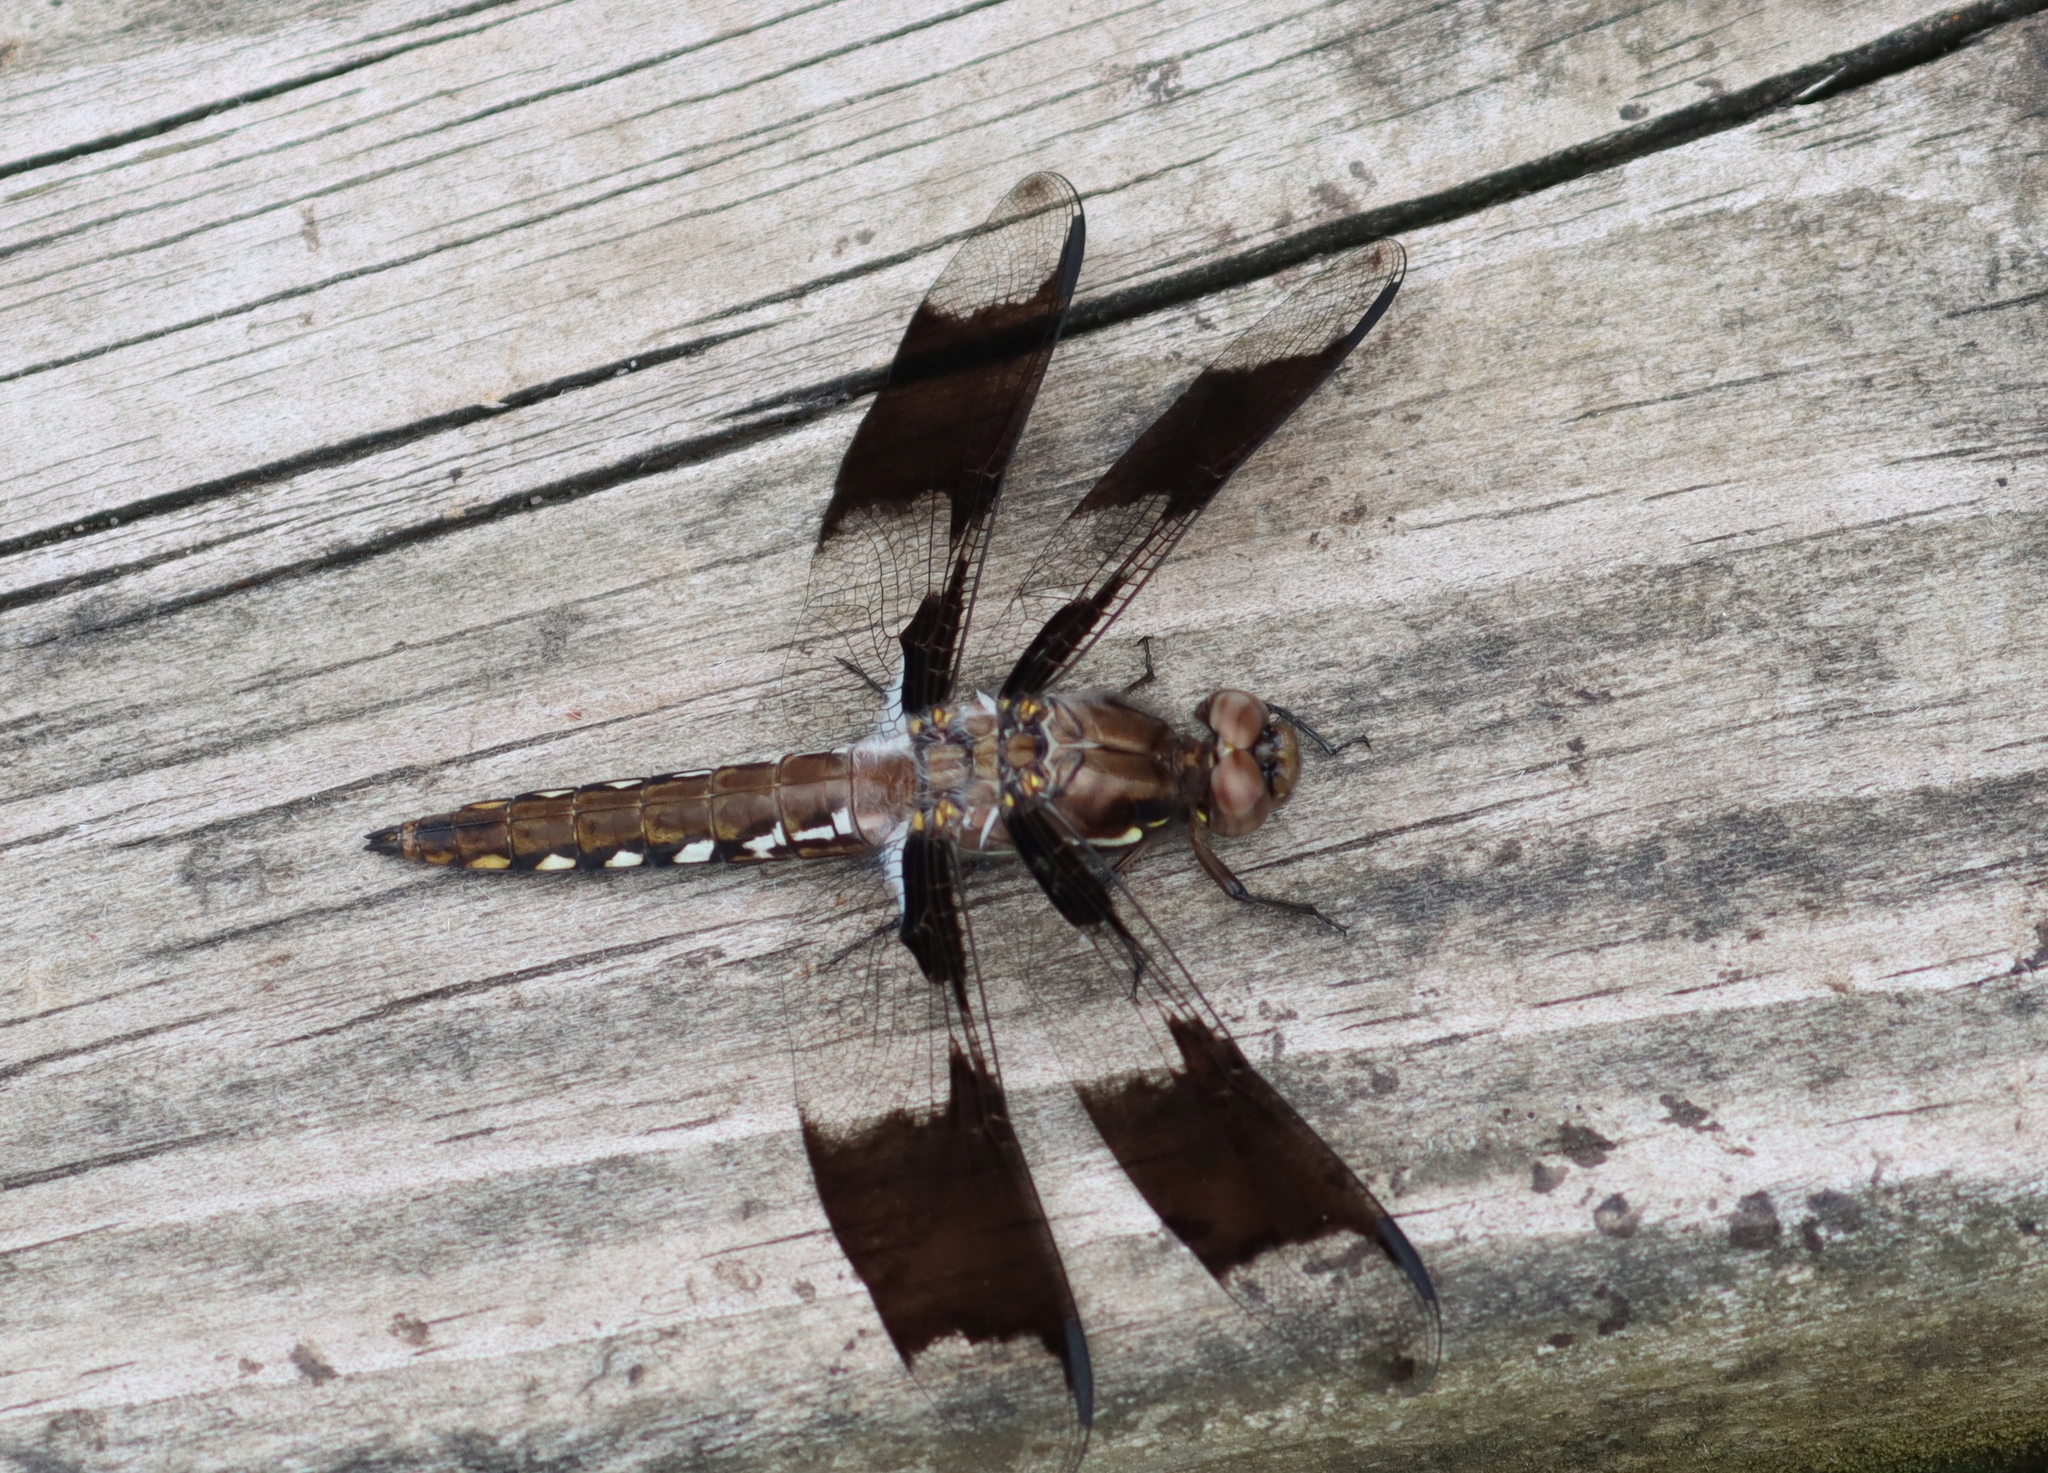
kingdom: Animalia
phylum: Arthropoda
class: Insecta
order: Odonata
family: Libellulidae
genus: Plathemis
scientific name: Plathemis lydia
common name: Common whitetail
